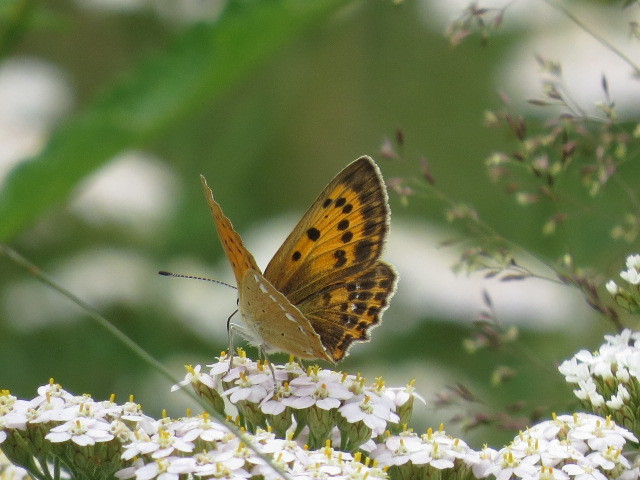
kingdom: Animalia
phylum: Arthropoda
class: Insecta
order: Lepidoptera
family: Lycaenidae
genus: Lycaena
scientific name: Lycaena virgaureae
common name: Scarce copper
